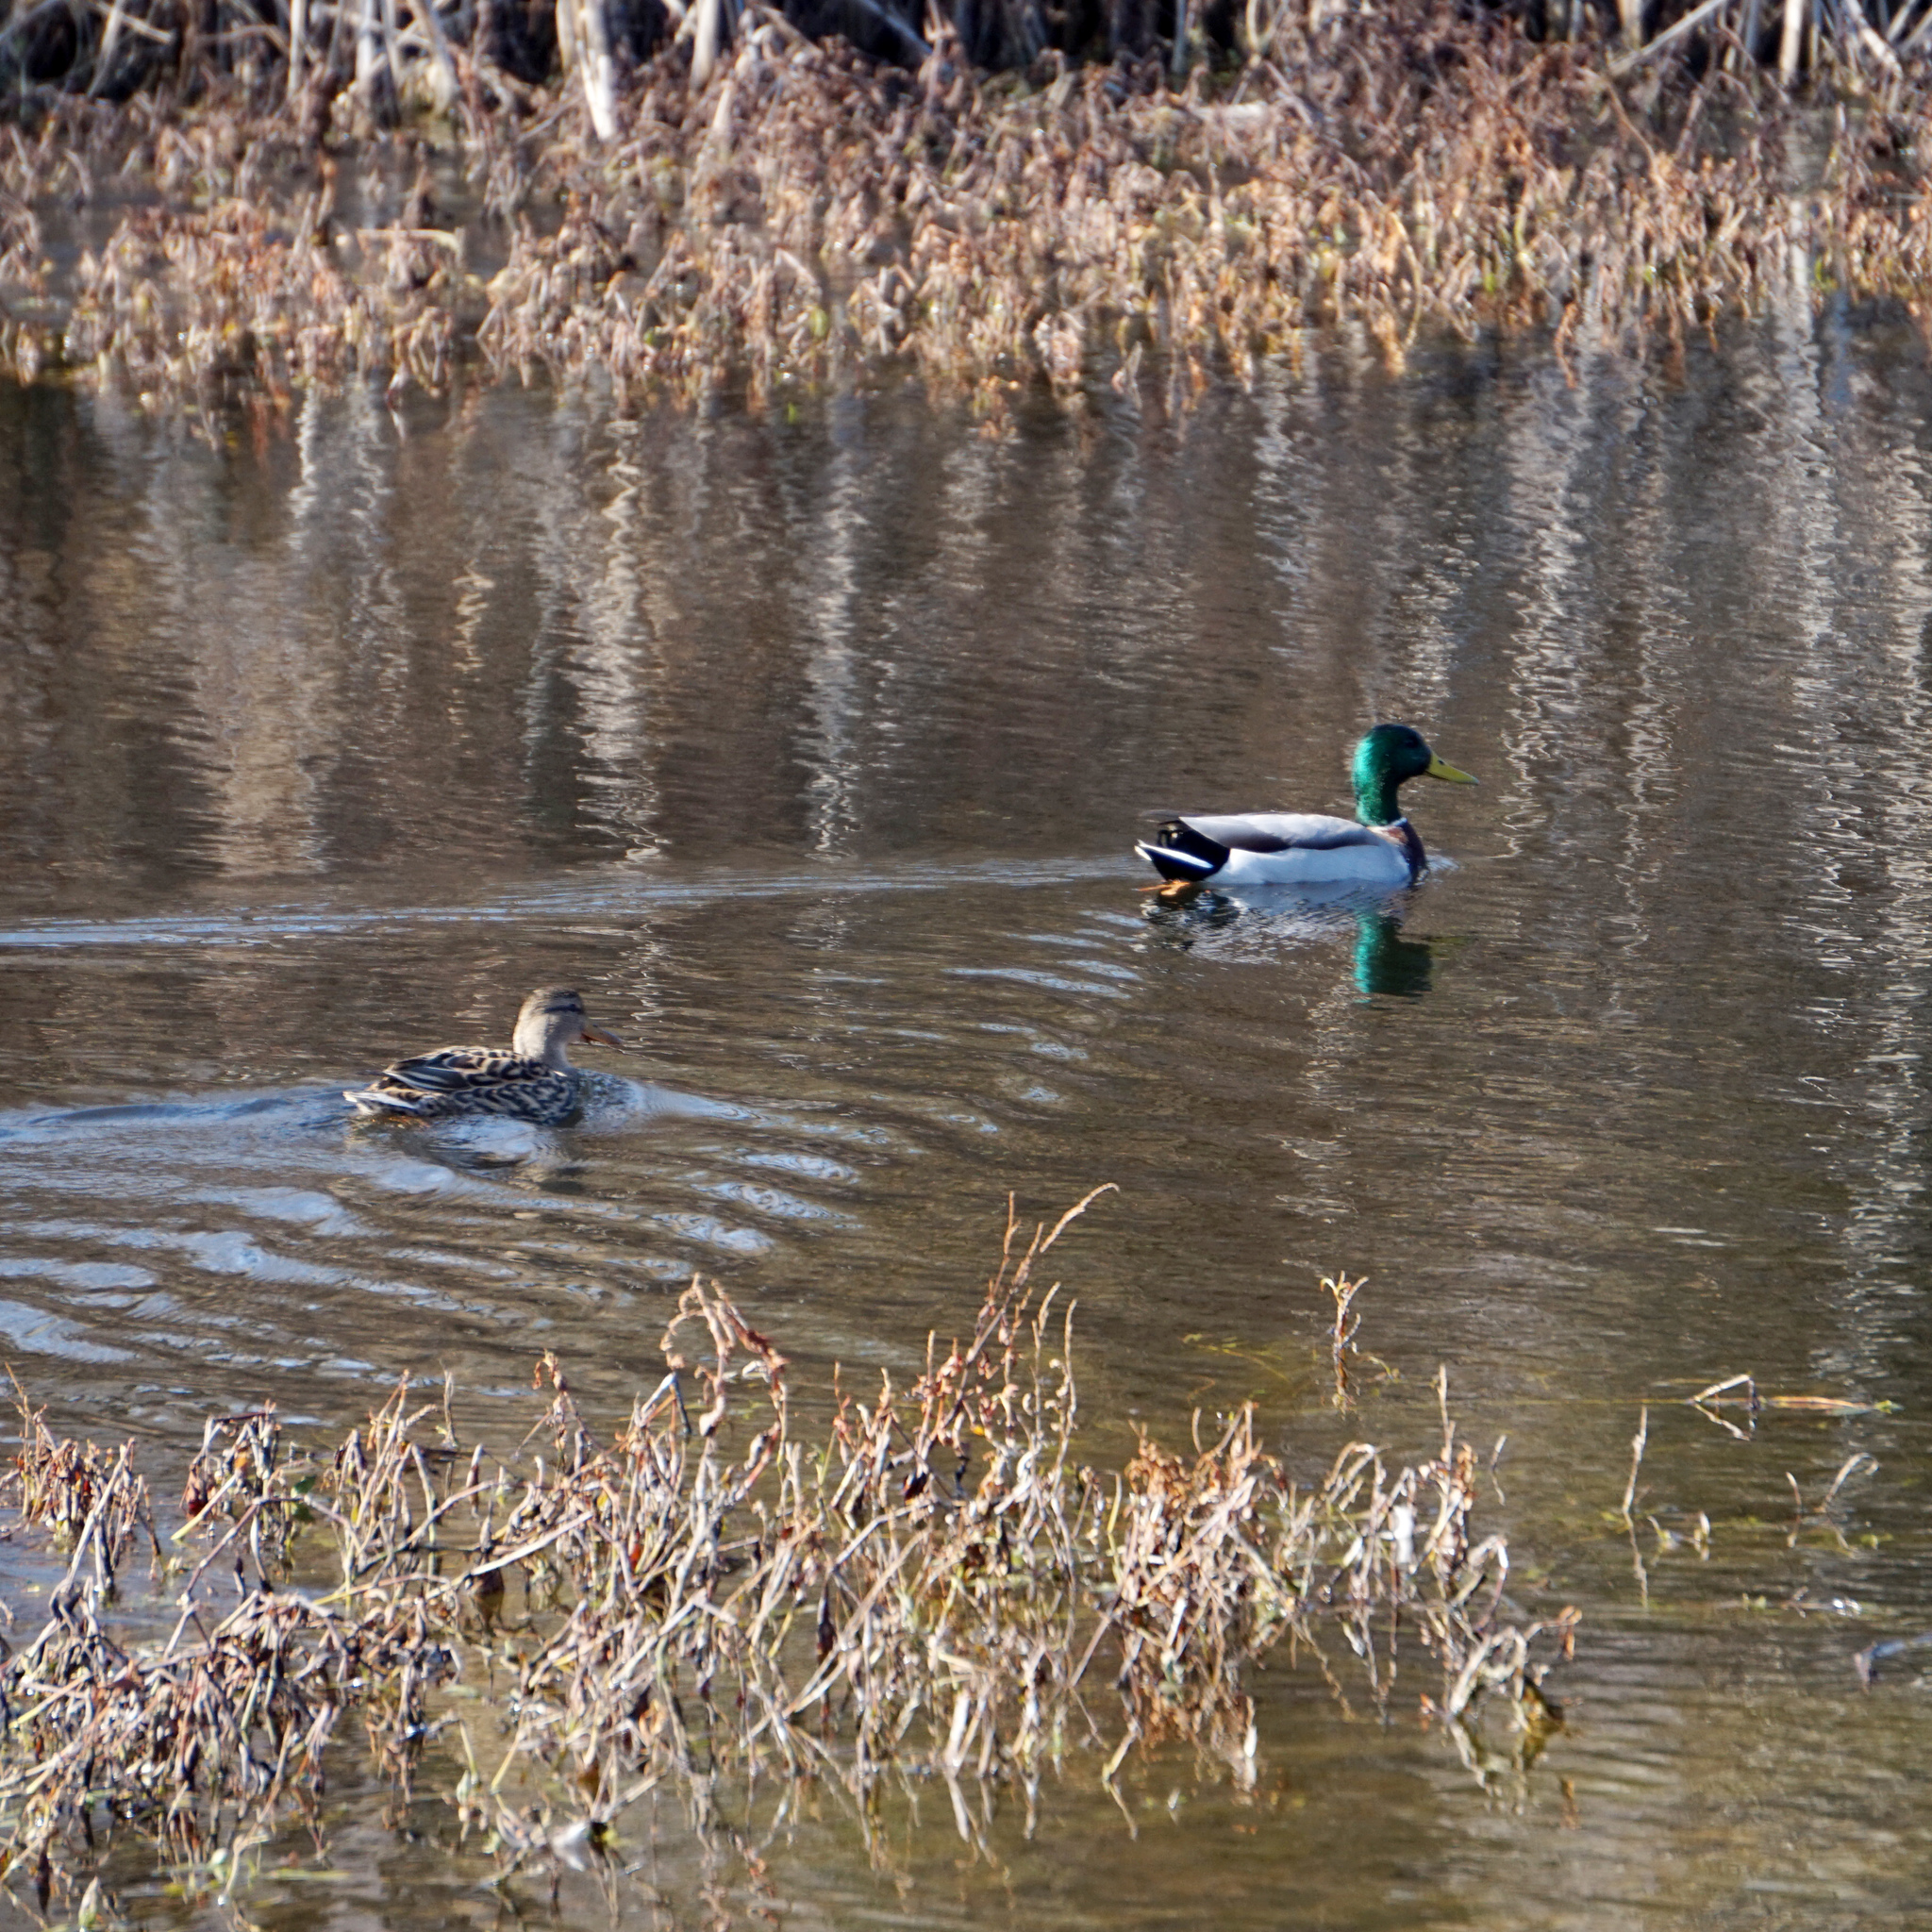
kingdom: Animalia
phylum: Chordata
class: Aves
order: Anseriformes
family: Anatidae
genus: Anas
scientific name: Anas platyrhynchos
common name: Mallard
